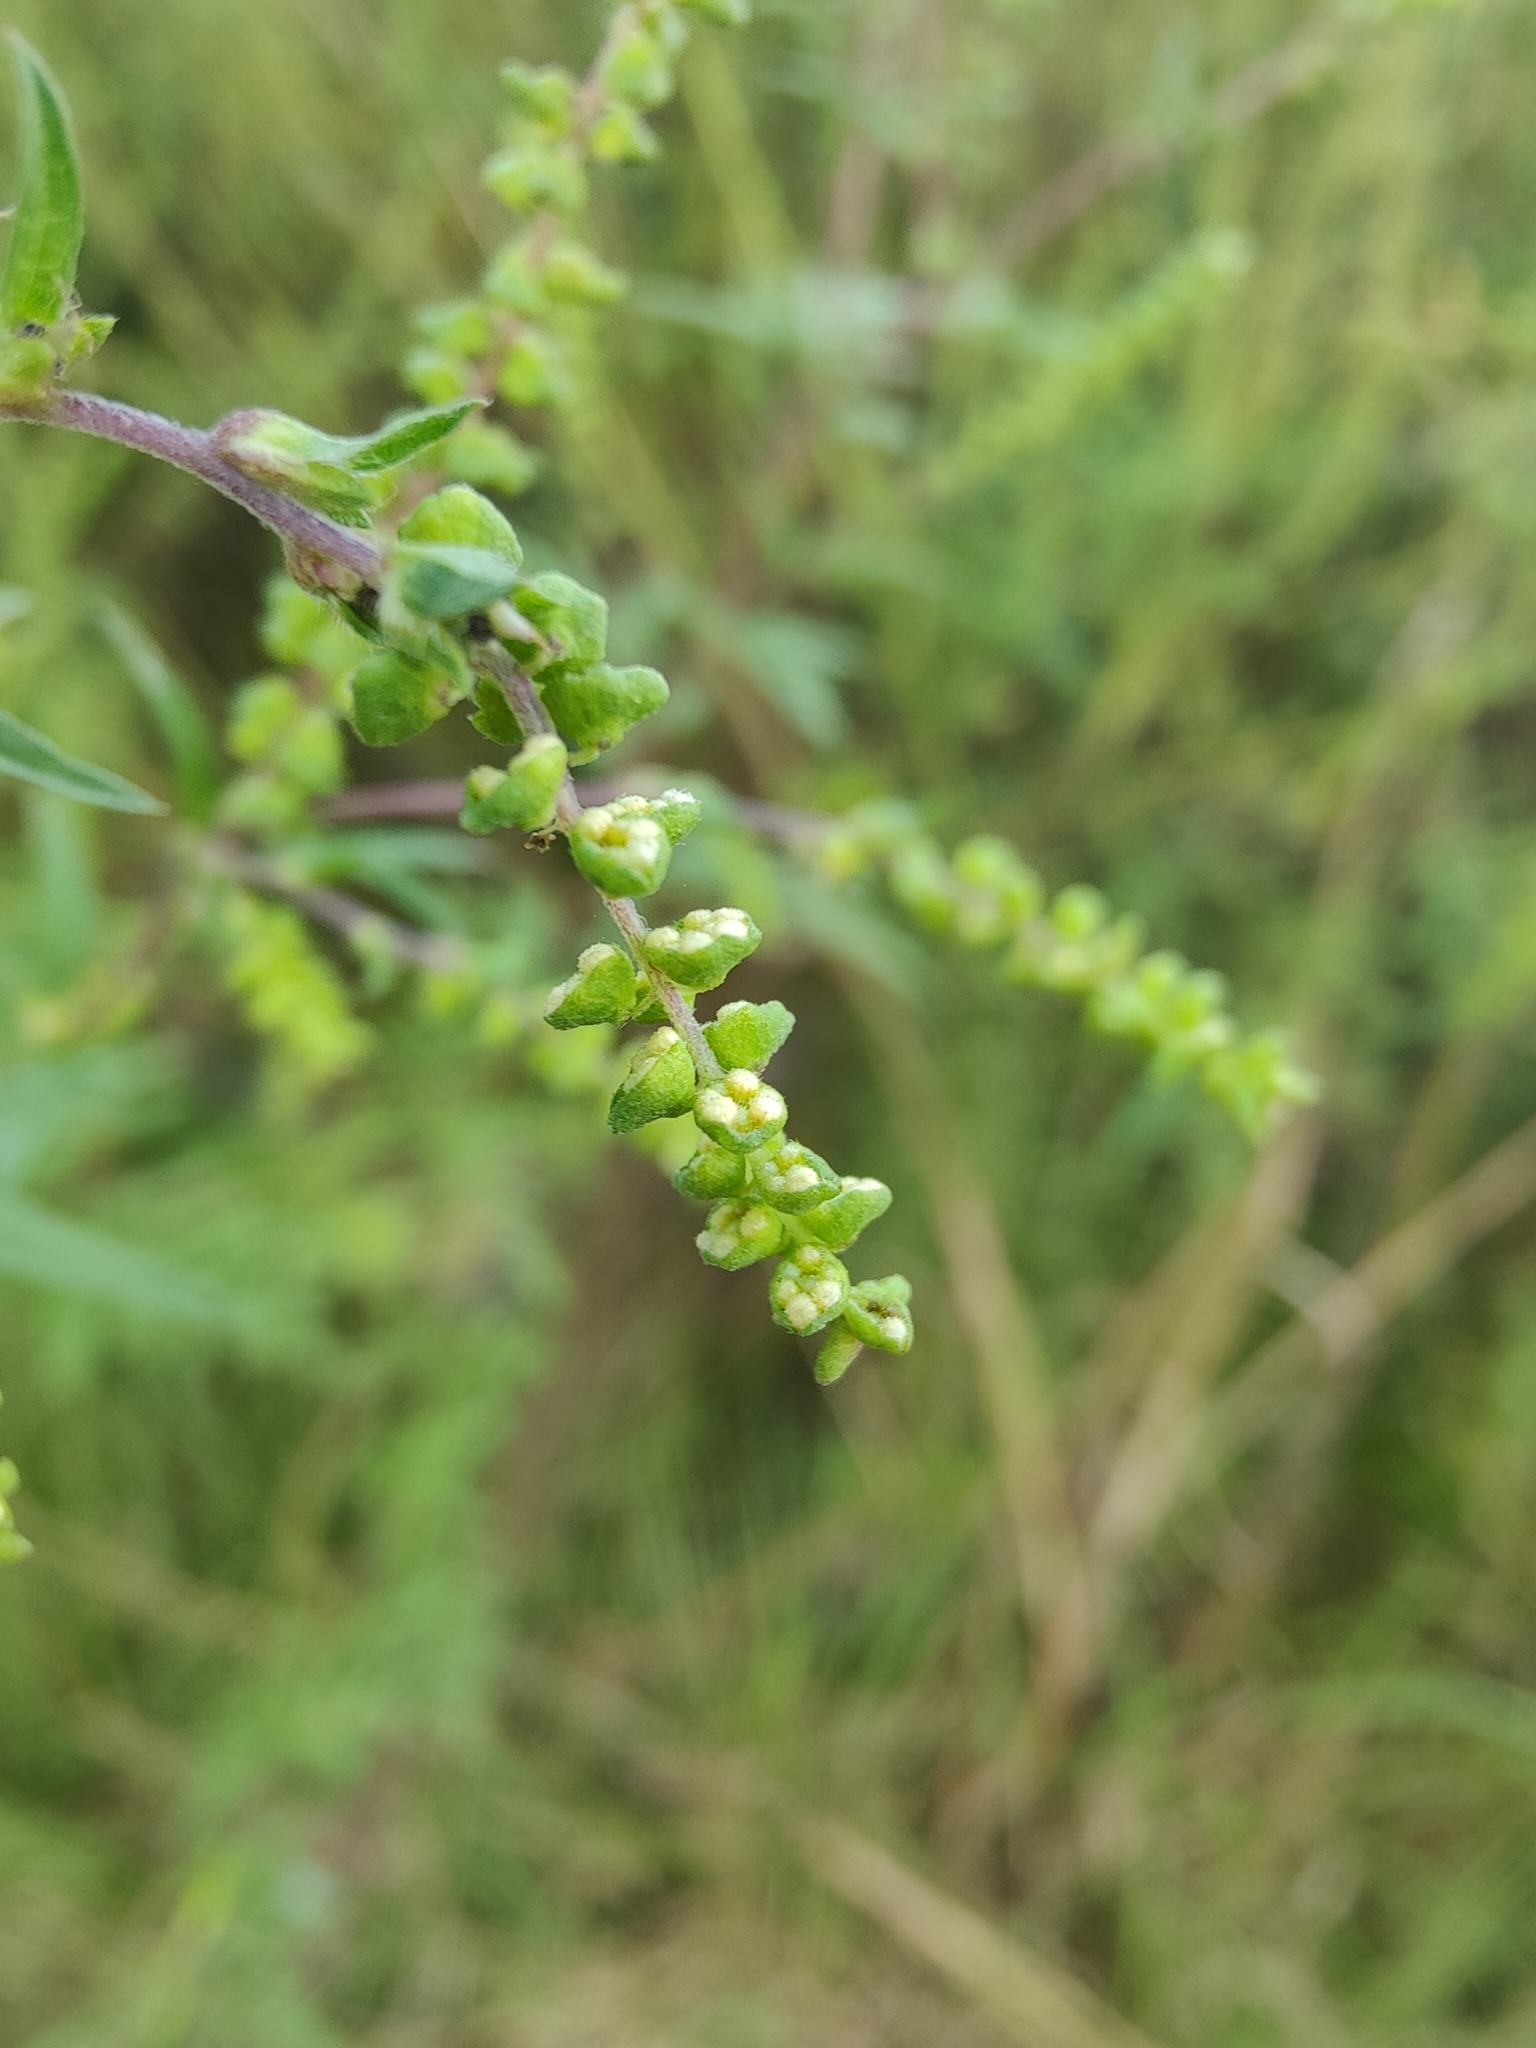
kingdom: Plantae
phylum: Tracheophyta
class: Magnoliopsida
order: Asterales
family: Asteraceae
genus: Ambrosia
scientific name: Ambrosia artemisiifolia
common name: Annual ragweed
